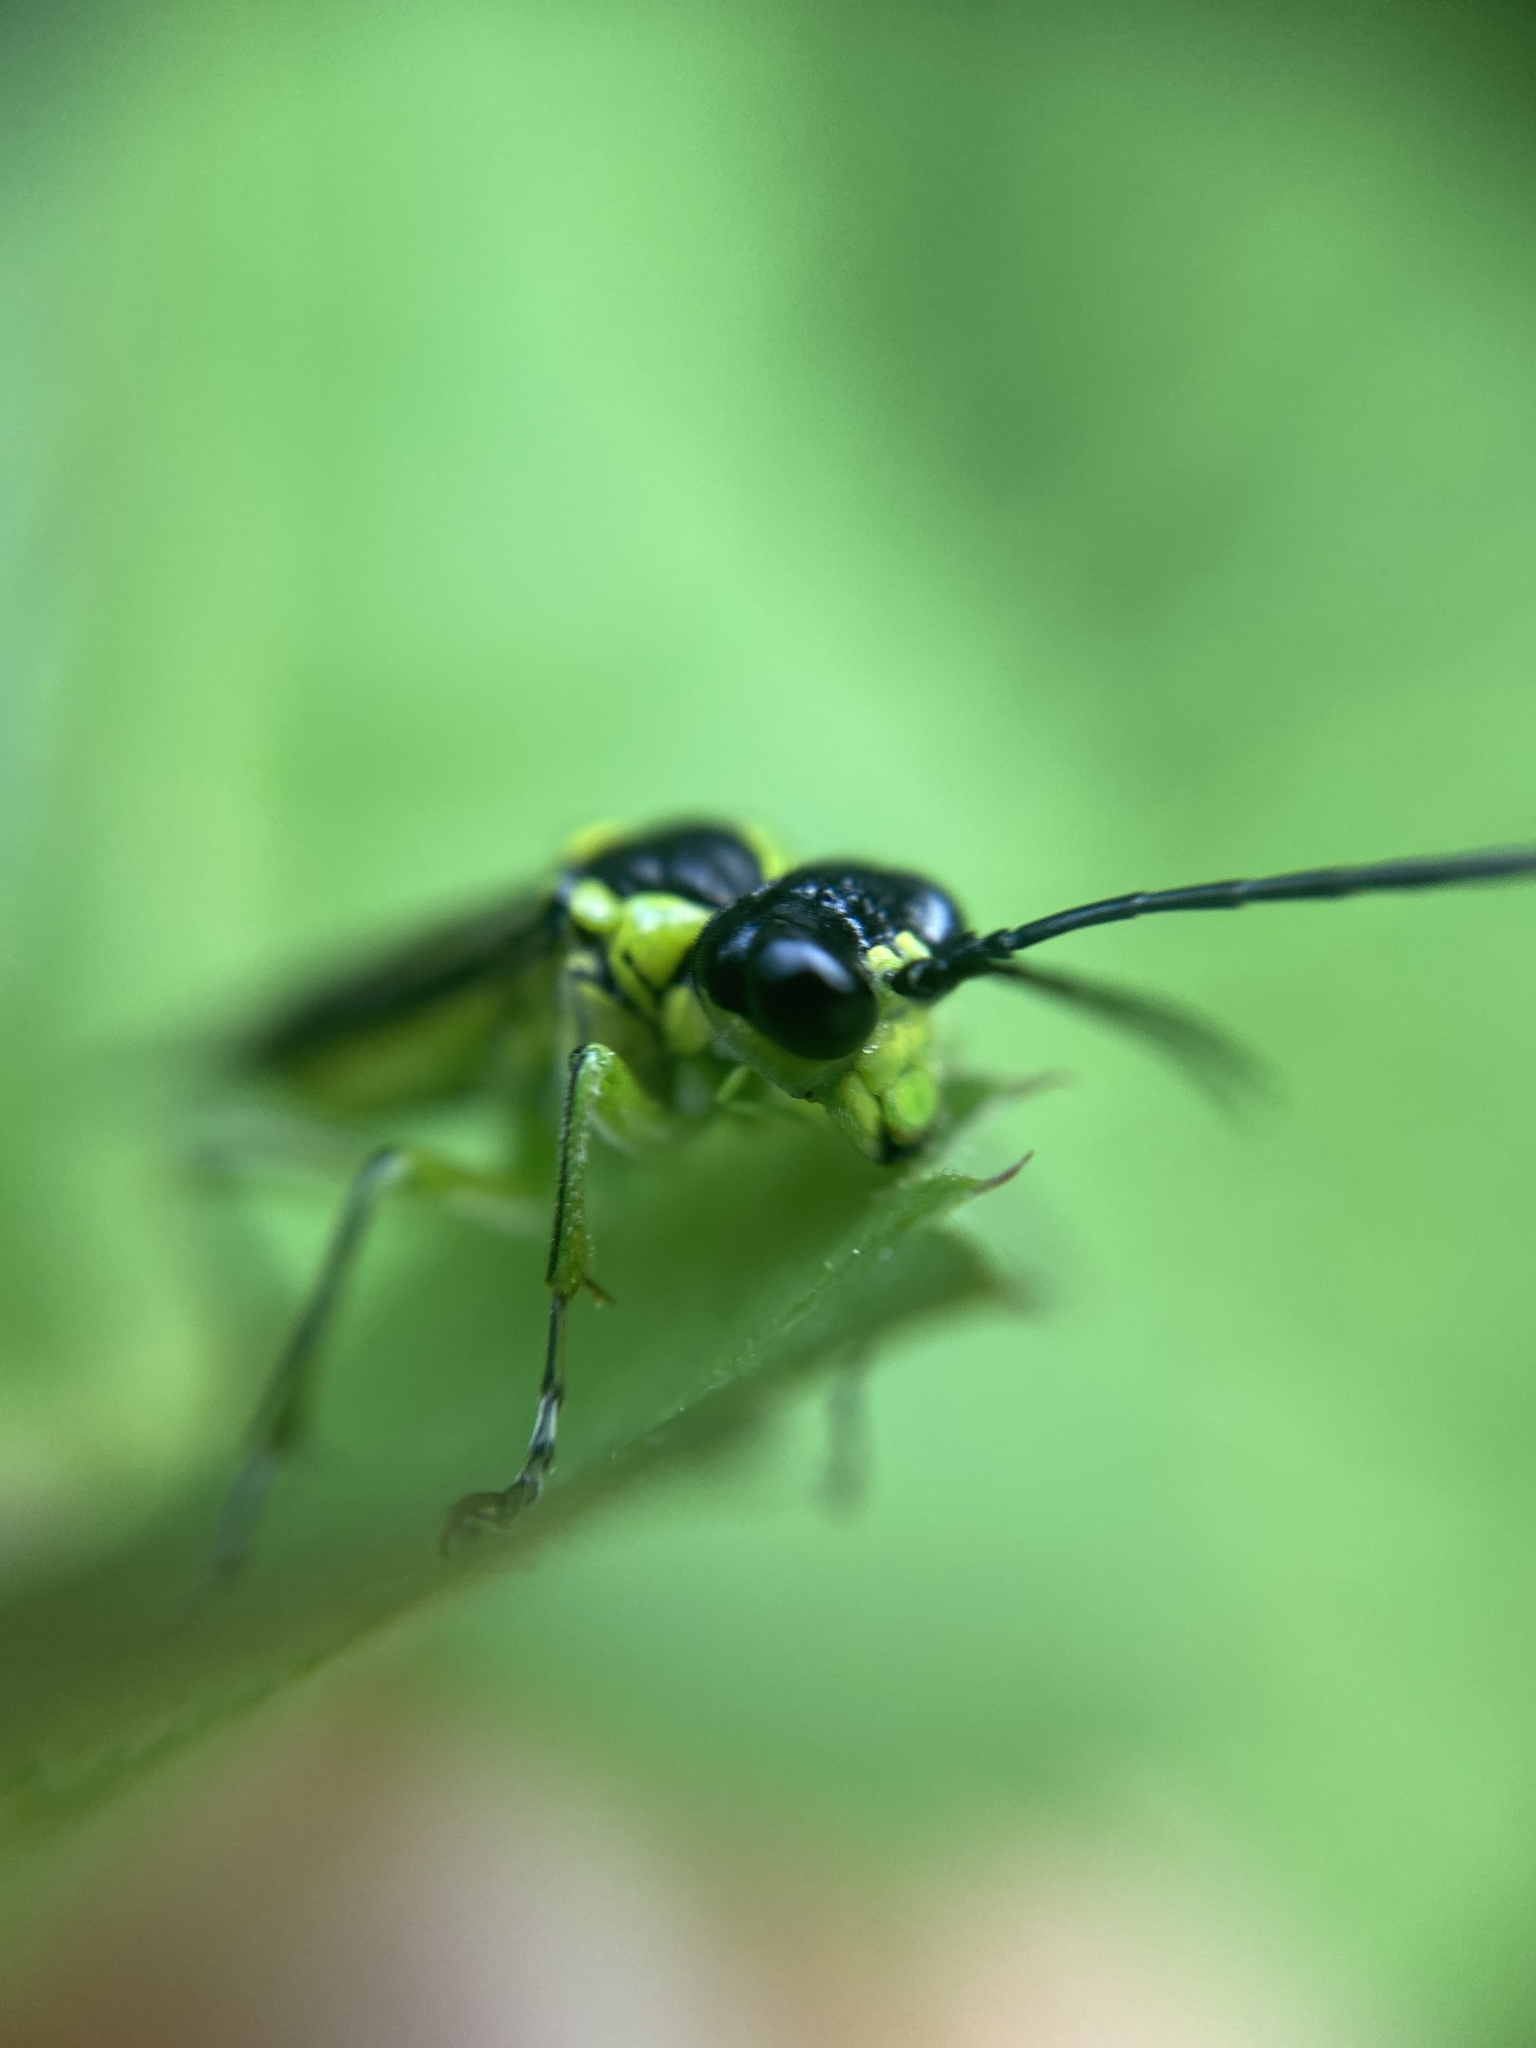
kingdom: Animalia
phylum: Arthropoda
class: Insecta
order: Hymenoptera
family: Tenthredinidae
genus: Tenthredo
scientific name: Tenthredo mesomela
